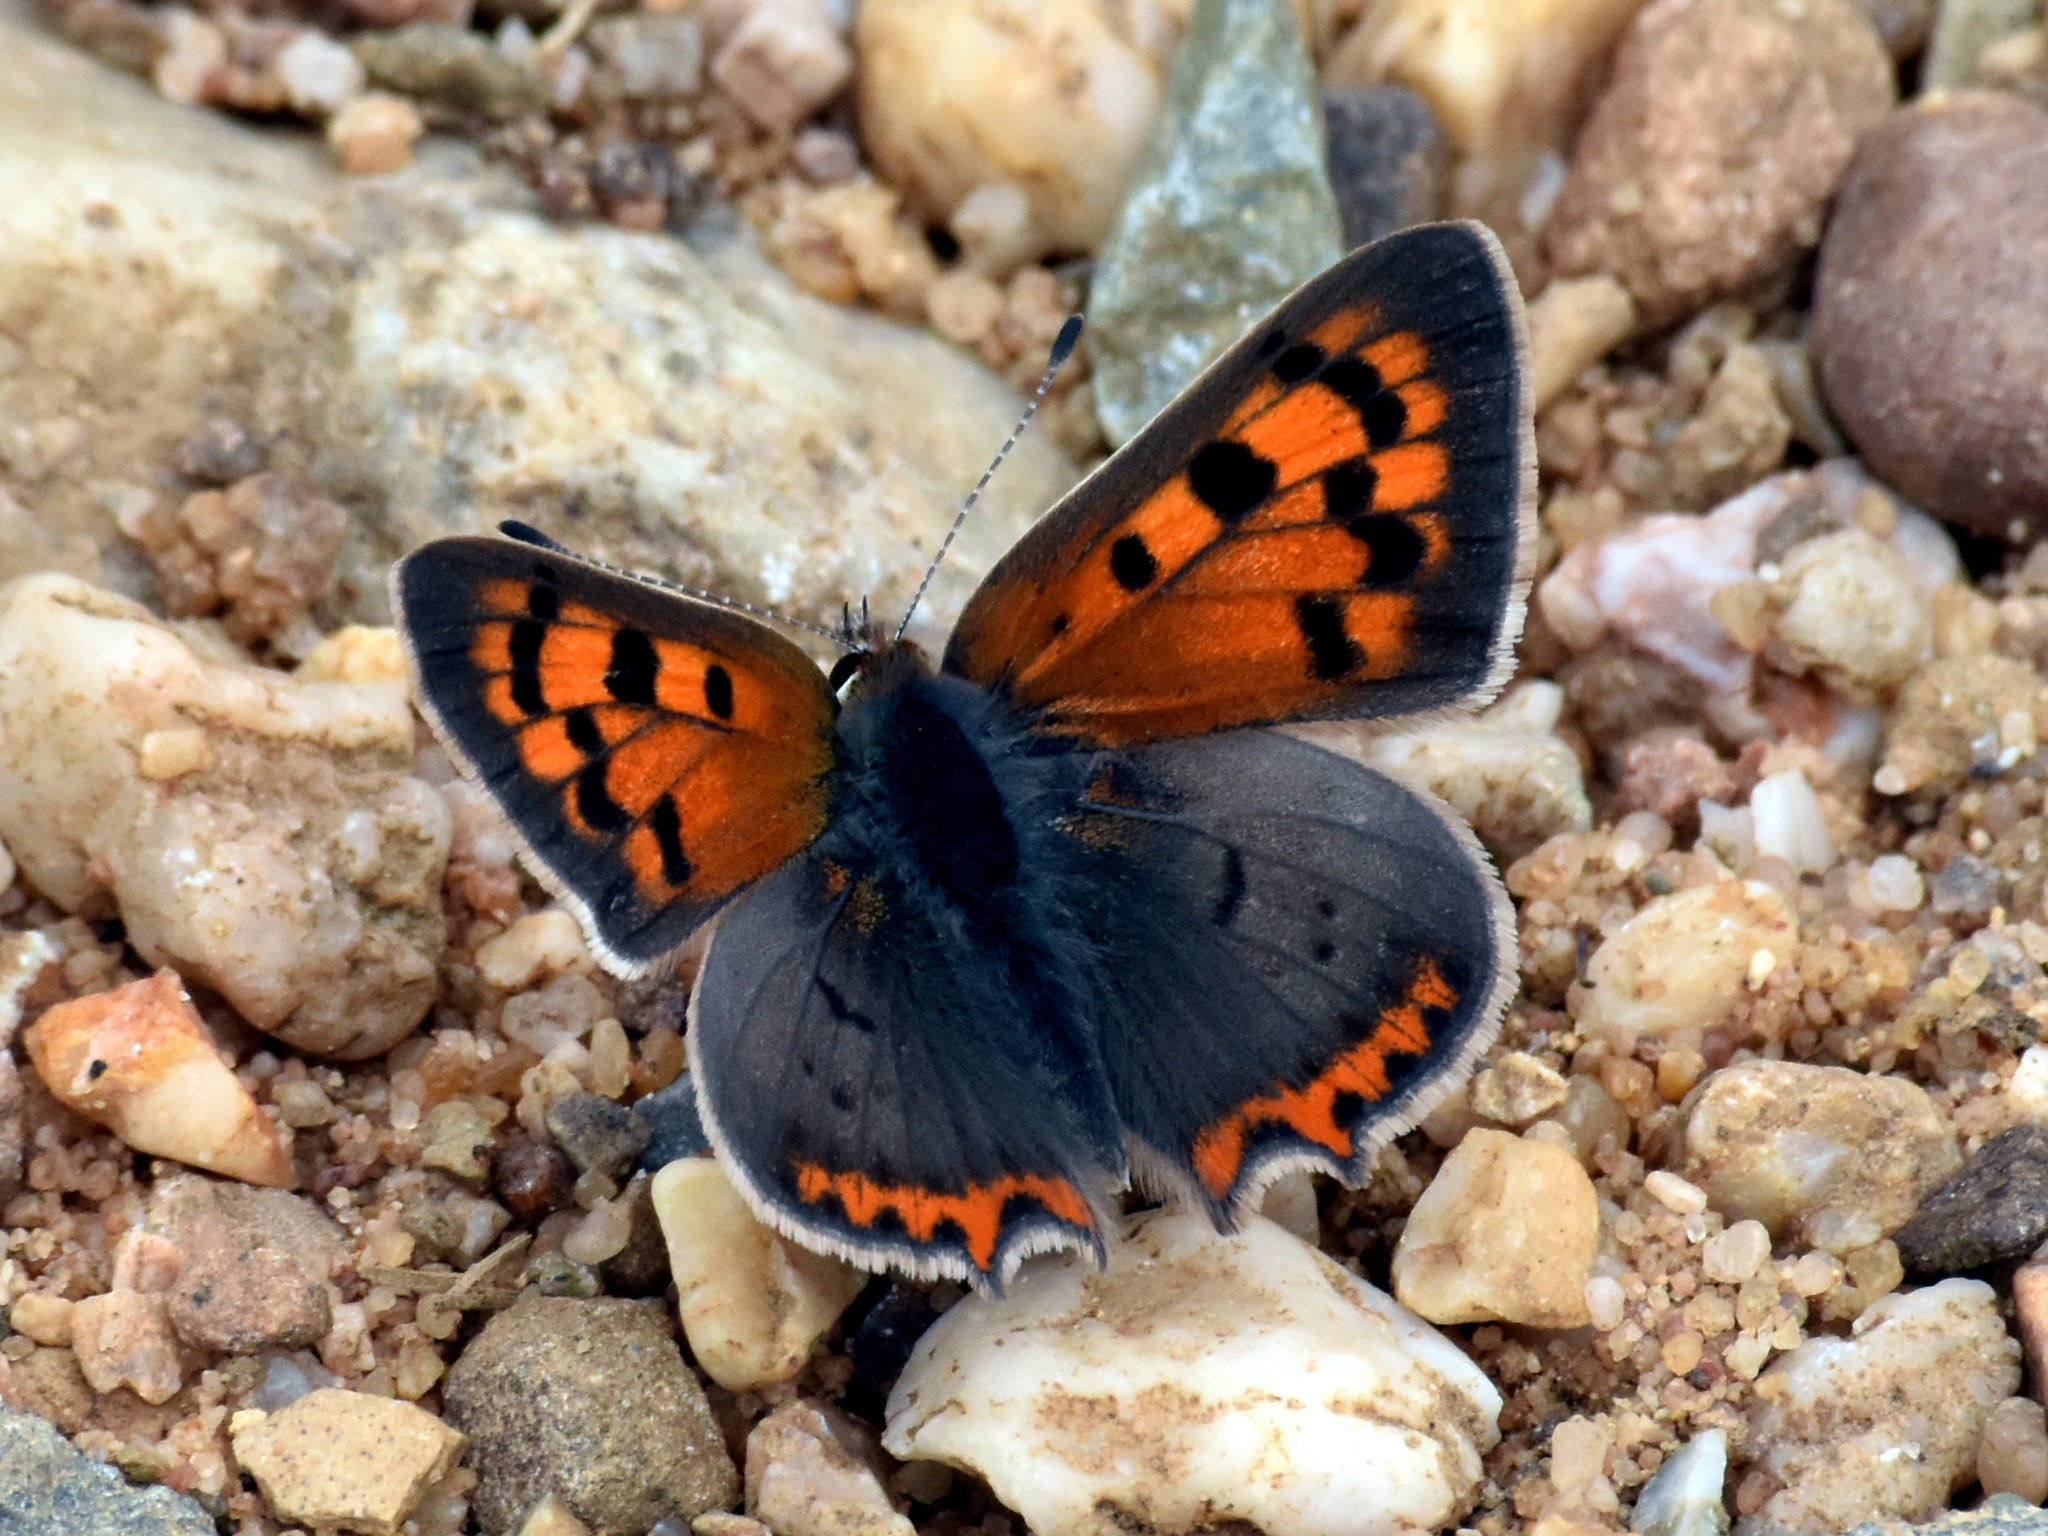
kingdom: Animalia
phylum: Arthropoda
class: Insecta
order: Lepidoptera
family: Lycaenidae
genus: Lycaena
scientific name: Lycaena phlaeas
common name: Small copper
